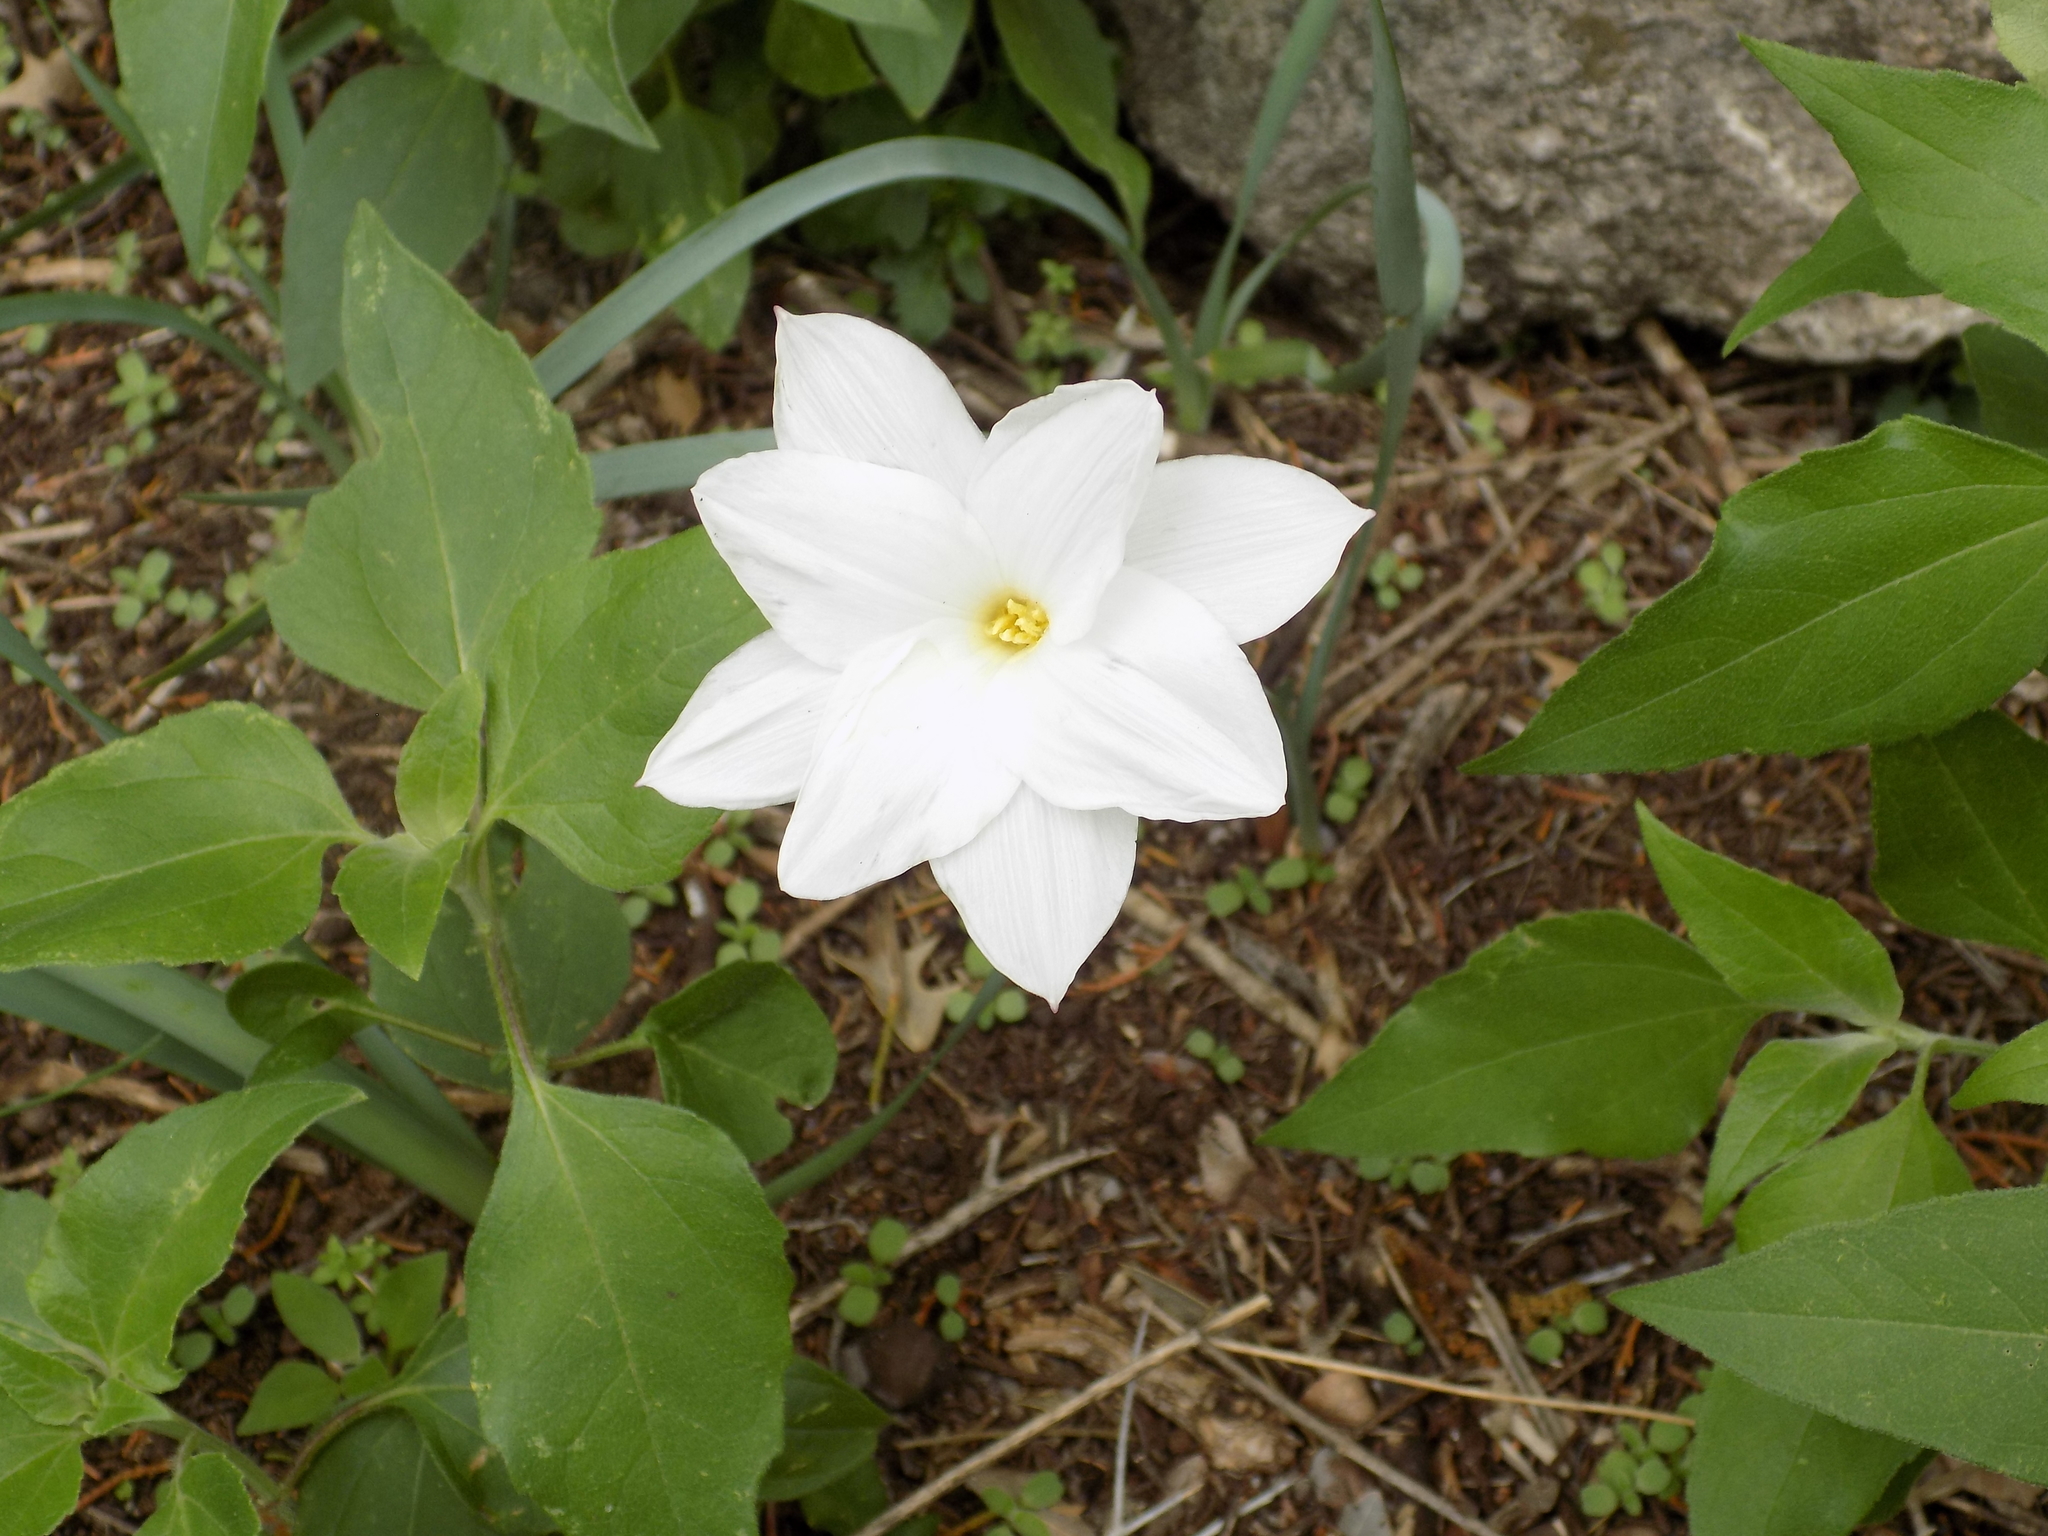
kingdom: Plantae
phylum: Tracheophyta
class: Liliopsida
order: Asparagales
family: Amaryllidaceae
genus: Zephyranthes
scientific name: Zephyranthes drummondii
